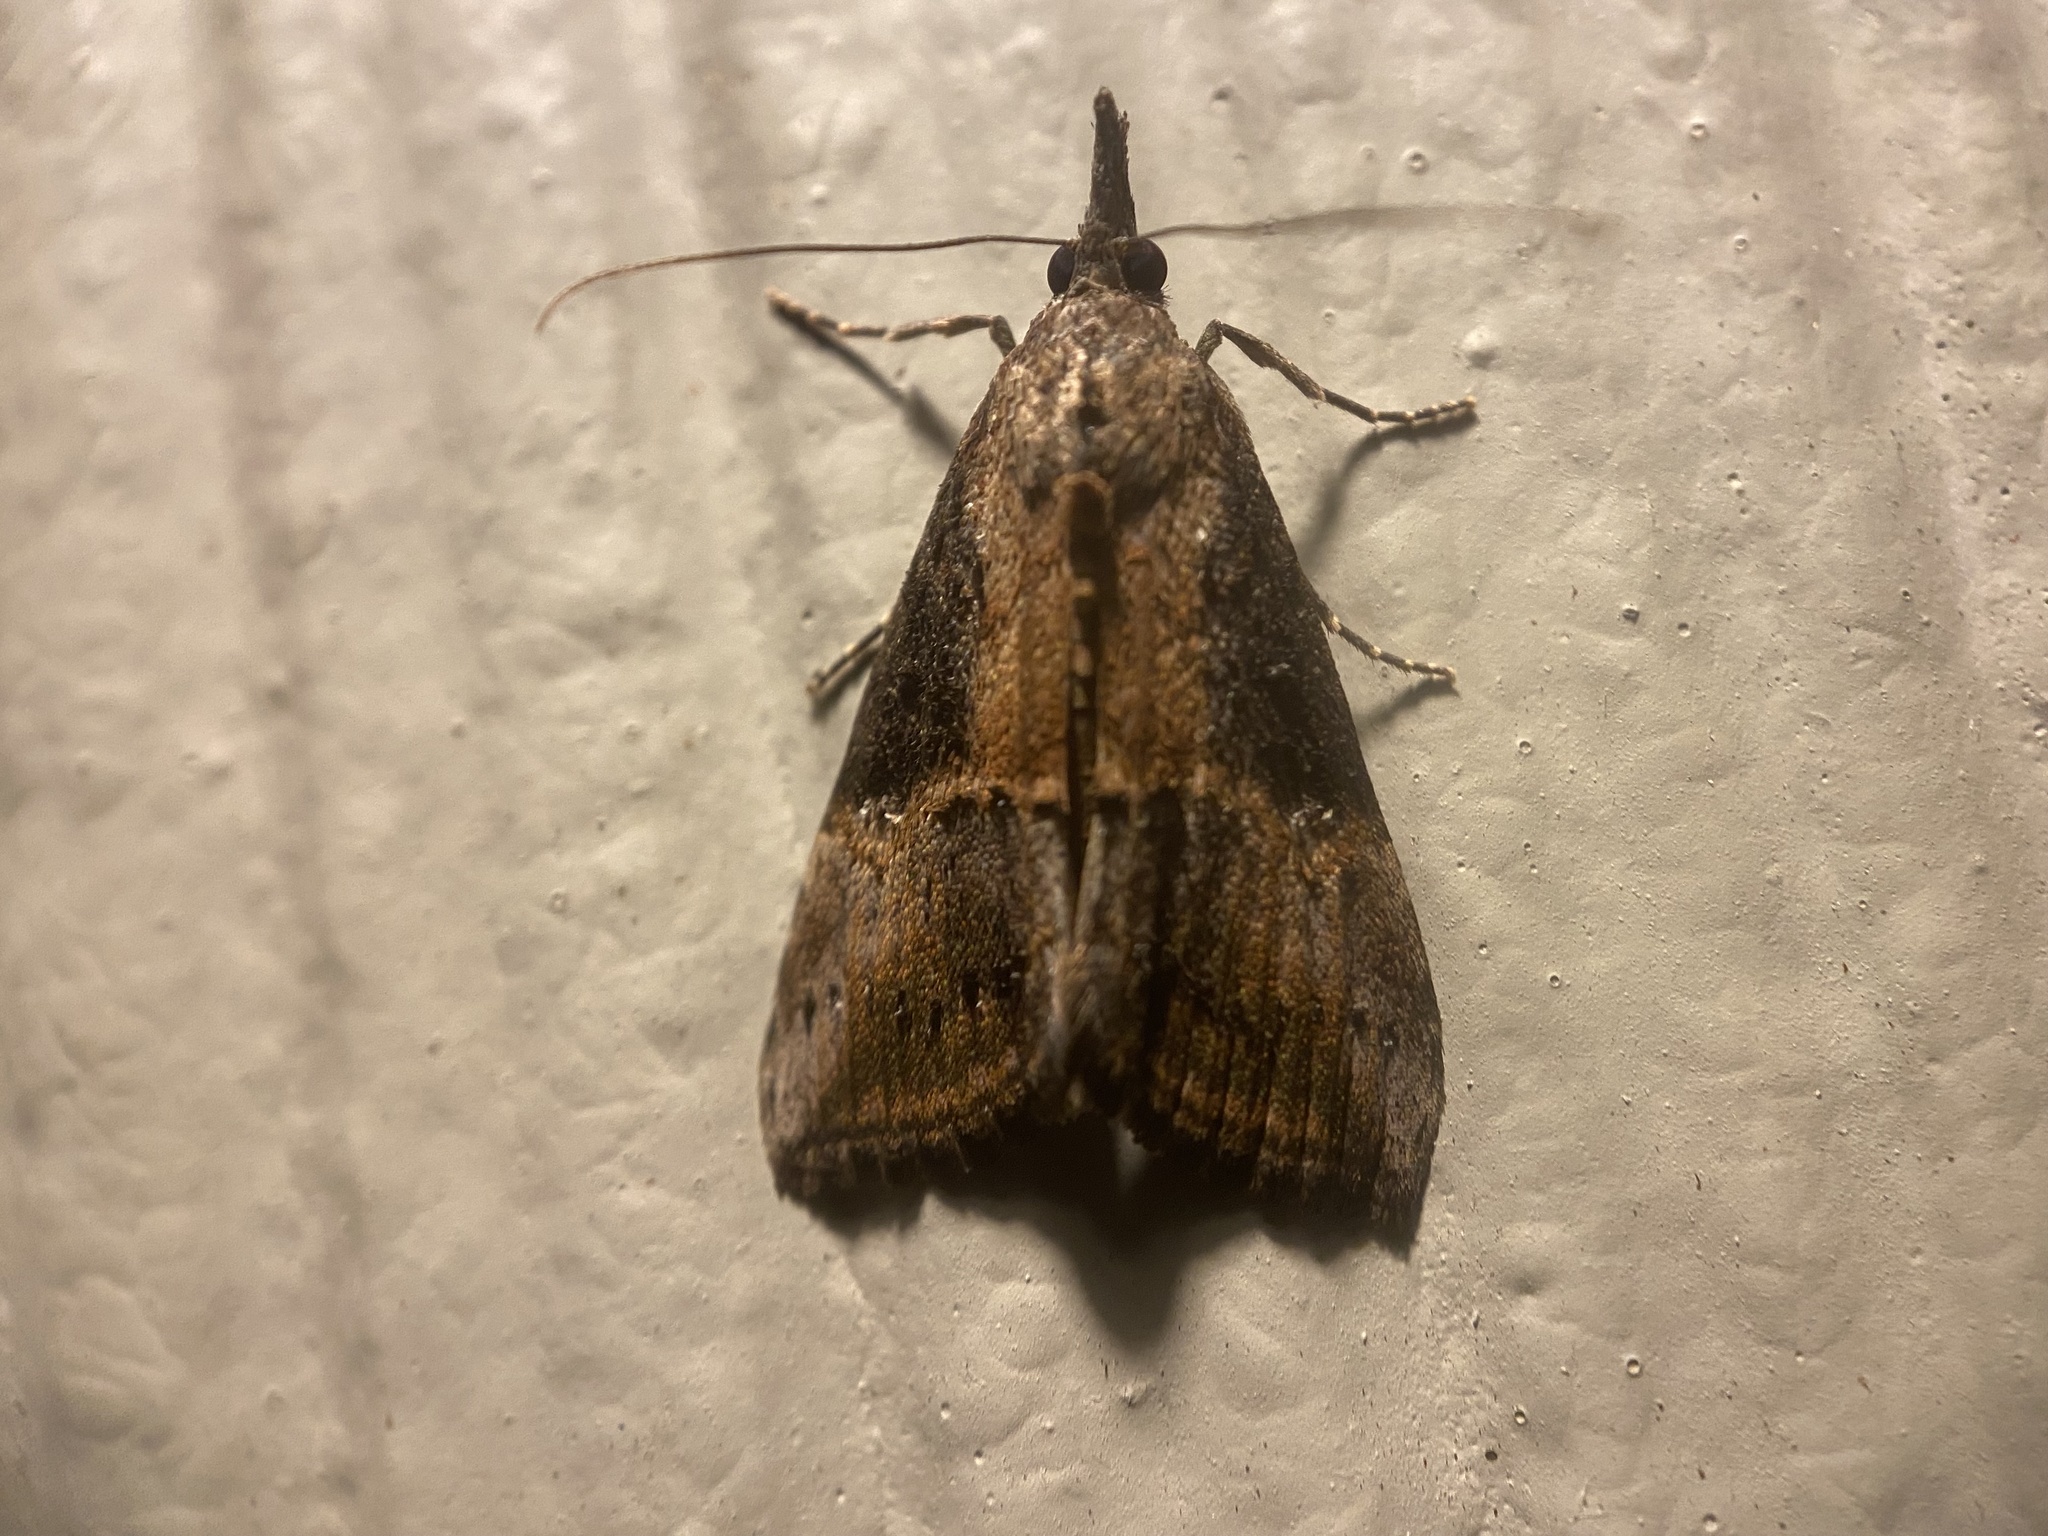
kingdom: Animalia
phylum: Arthropoda
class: Insecta
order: Lepidoptera
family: Erebidae
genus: Hypena
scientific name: Hypena scabra
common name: Green cloverworm
